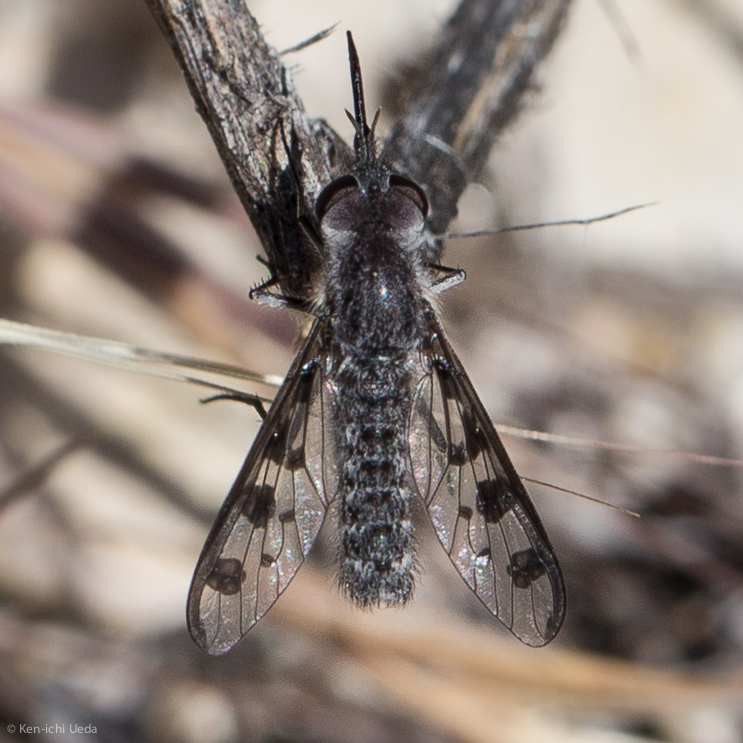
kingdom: Animalia
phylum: Arthropoda
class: Insecta
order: Diptera
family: Bombyliidae
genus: Thevenetimyia
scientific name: Thevenetimyia tridentata
